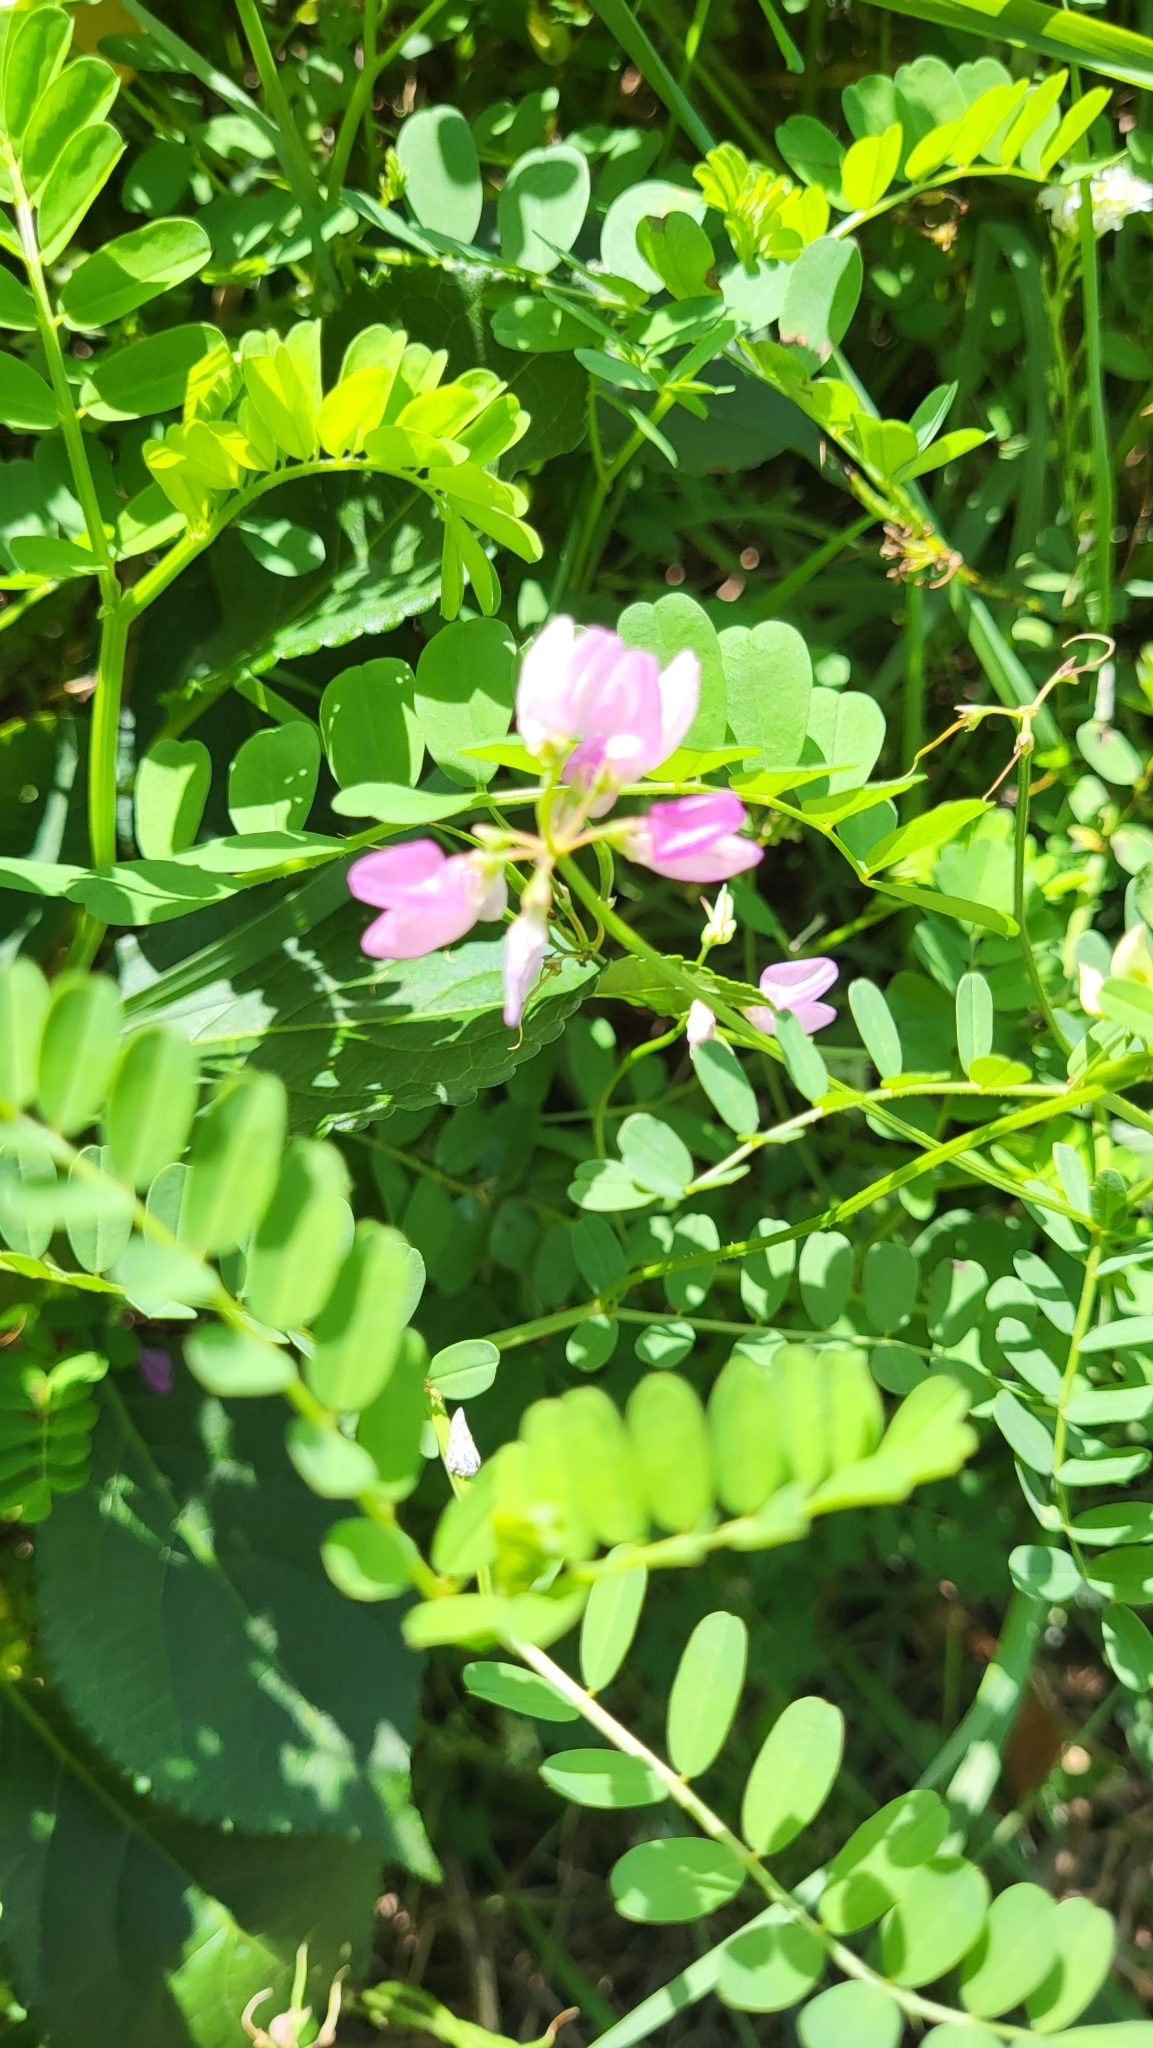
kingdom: Plantae
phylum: Tracheophyta
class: Magnoliopsida
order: Fabales
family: Fabaceae
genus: Coronilla
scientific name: Coronilla varia
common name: Crownvetch
